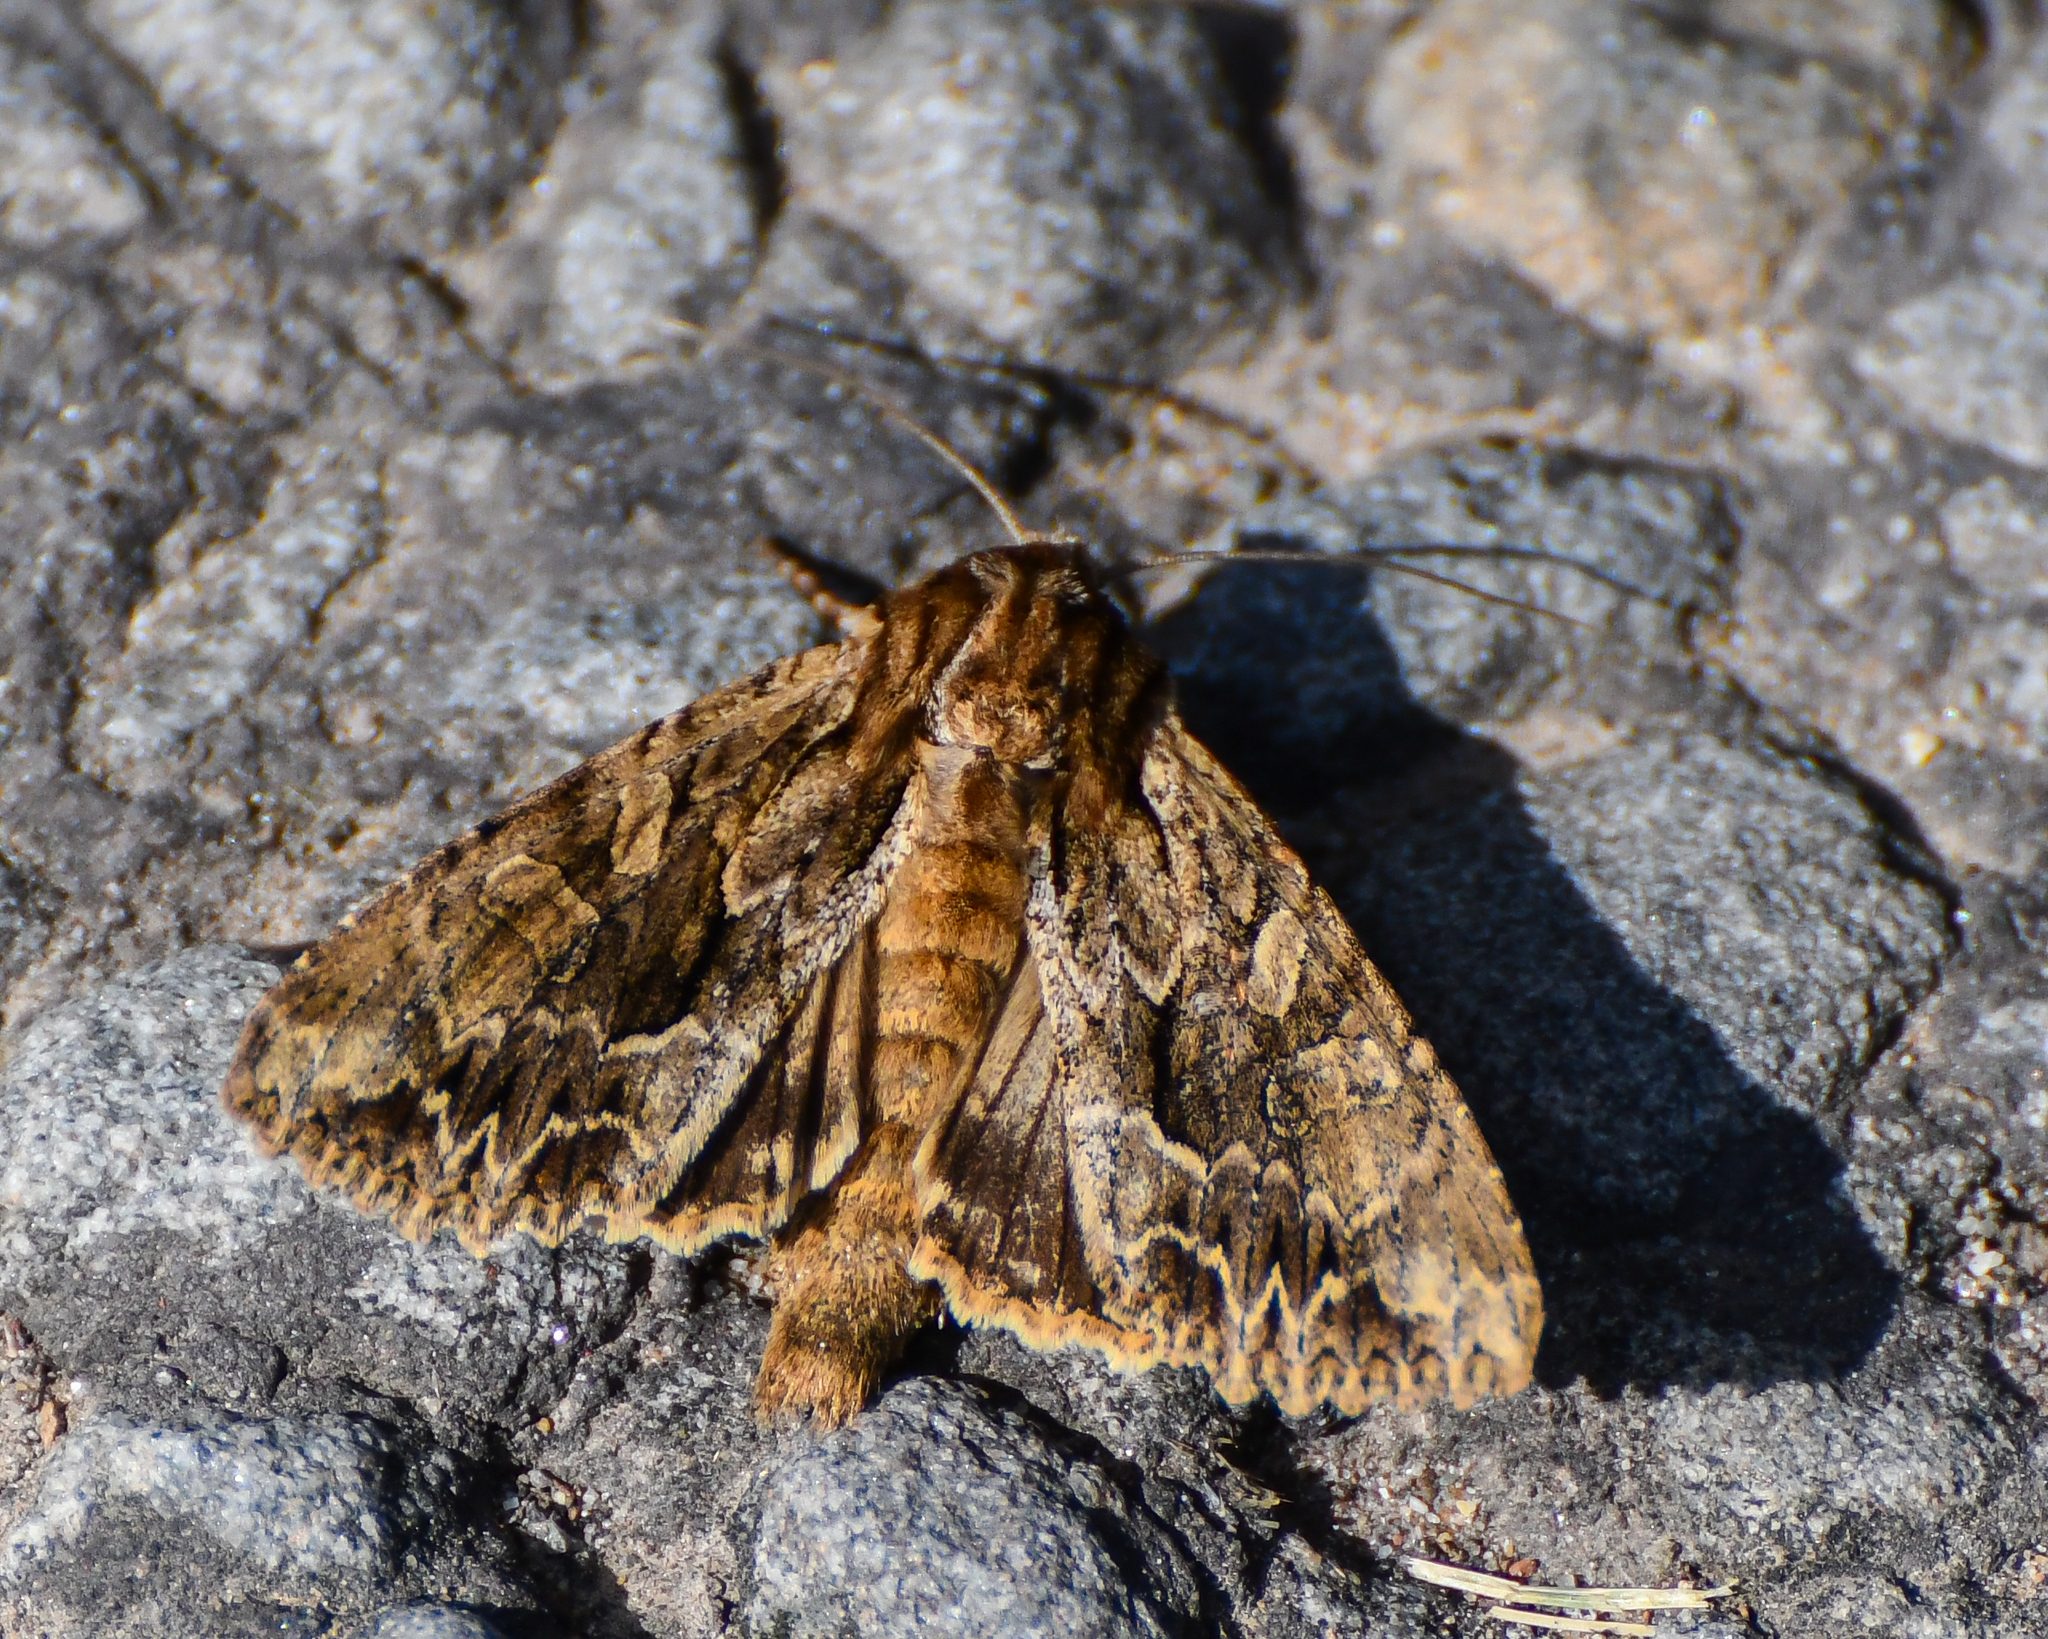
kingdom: Animalia
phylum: Arthropoda
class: Insecta
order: Lepidoptera
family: Noctuidae
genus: Apamea
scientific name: Apamea monoglypha
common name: Dark arches
